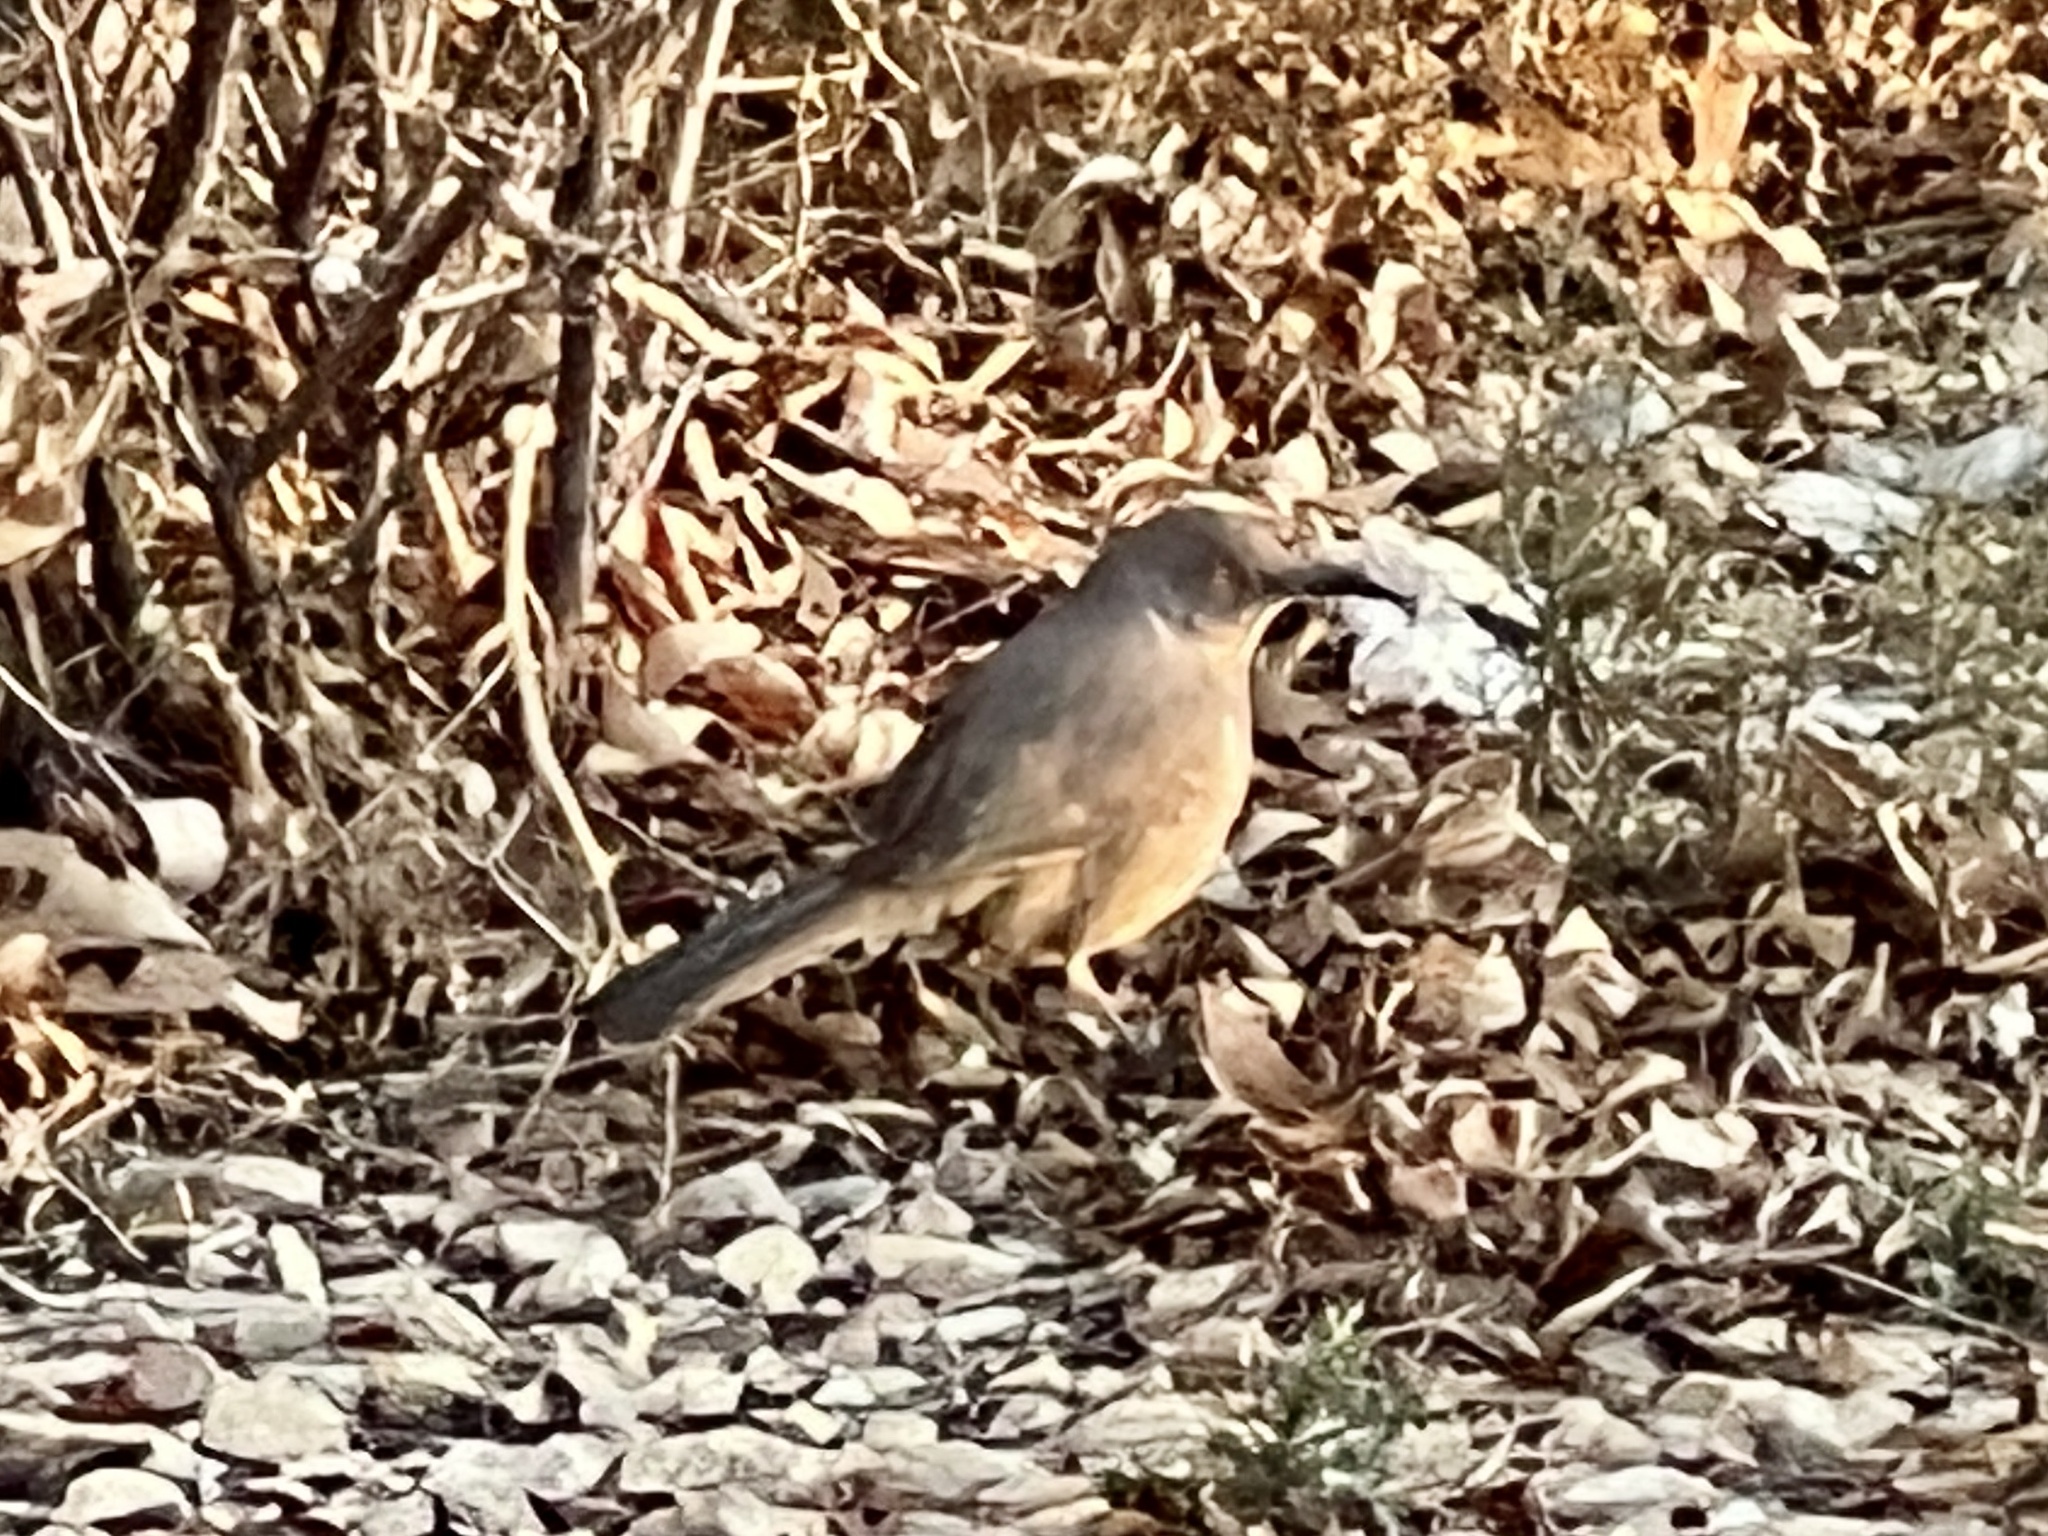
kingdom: Animalia
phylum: Chordata
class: Aves
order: Passeriformes
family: Mimidae
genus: Toxostoma
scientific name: Toxostoma curvirostre
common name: Curve-billed thrasher
